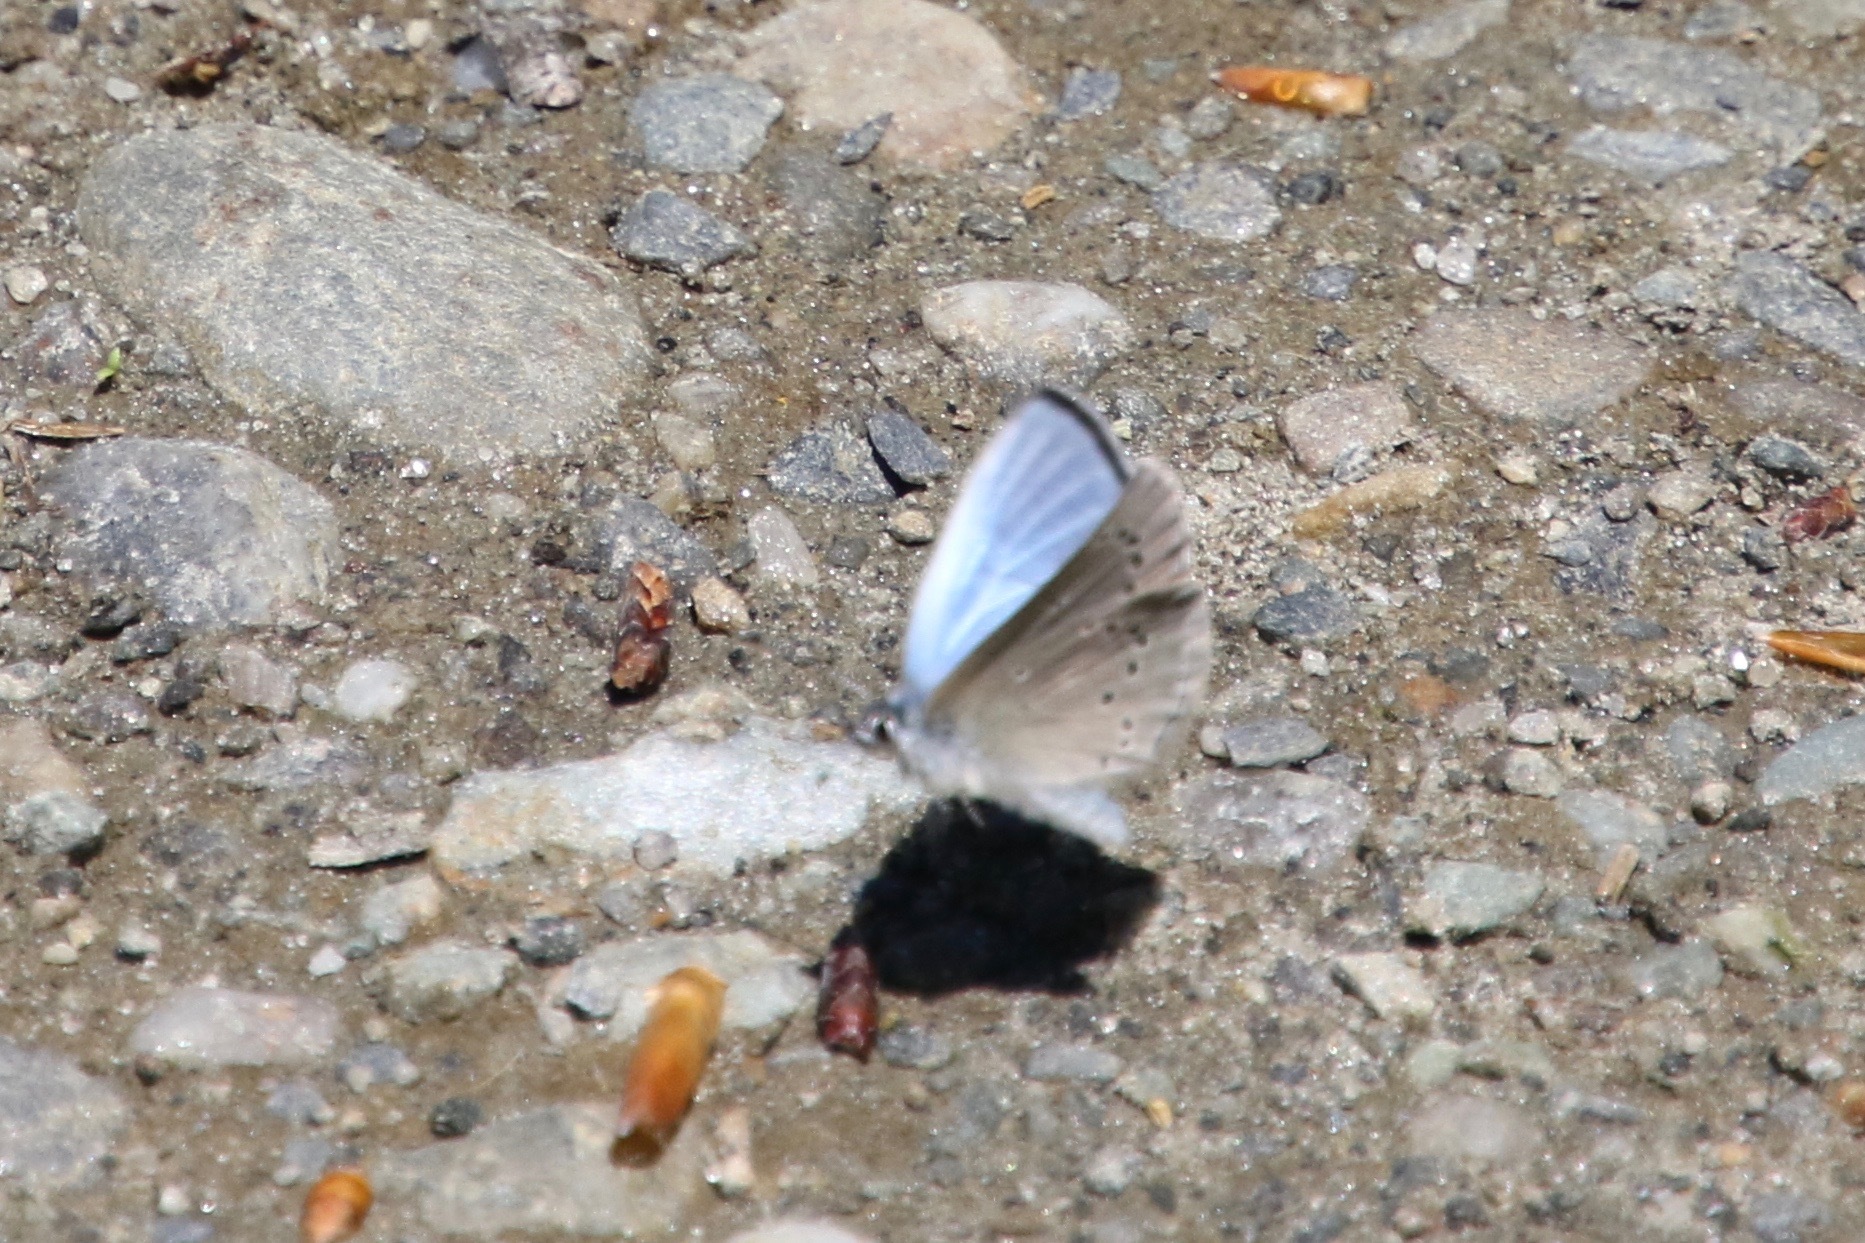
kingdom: Animalia
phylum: Arthropoda
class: Insecta
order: Lepidoptera
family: Lycaenidae
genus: Glaucopsyche
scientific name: Glaucopsyche lygdamus
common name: Silvery blue
